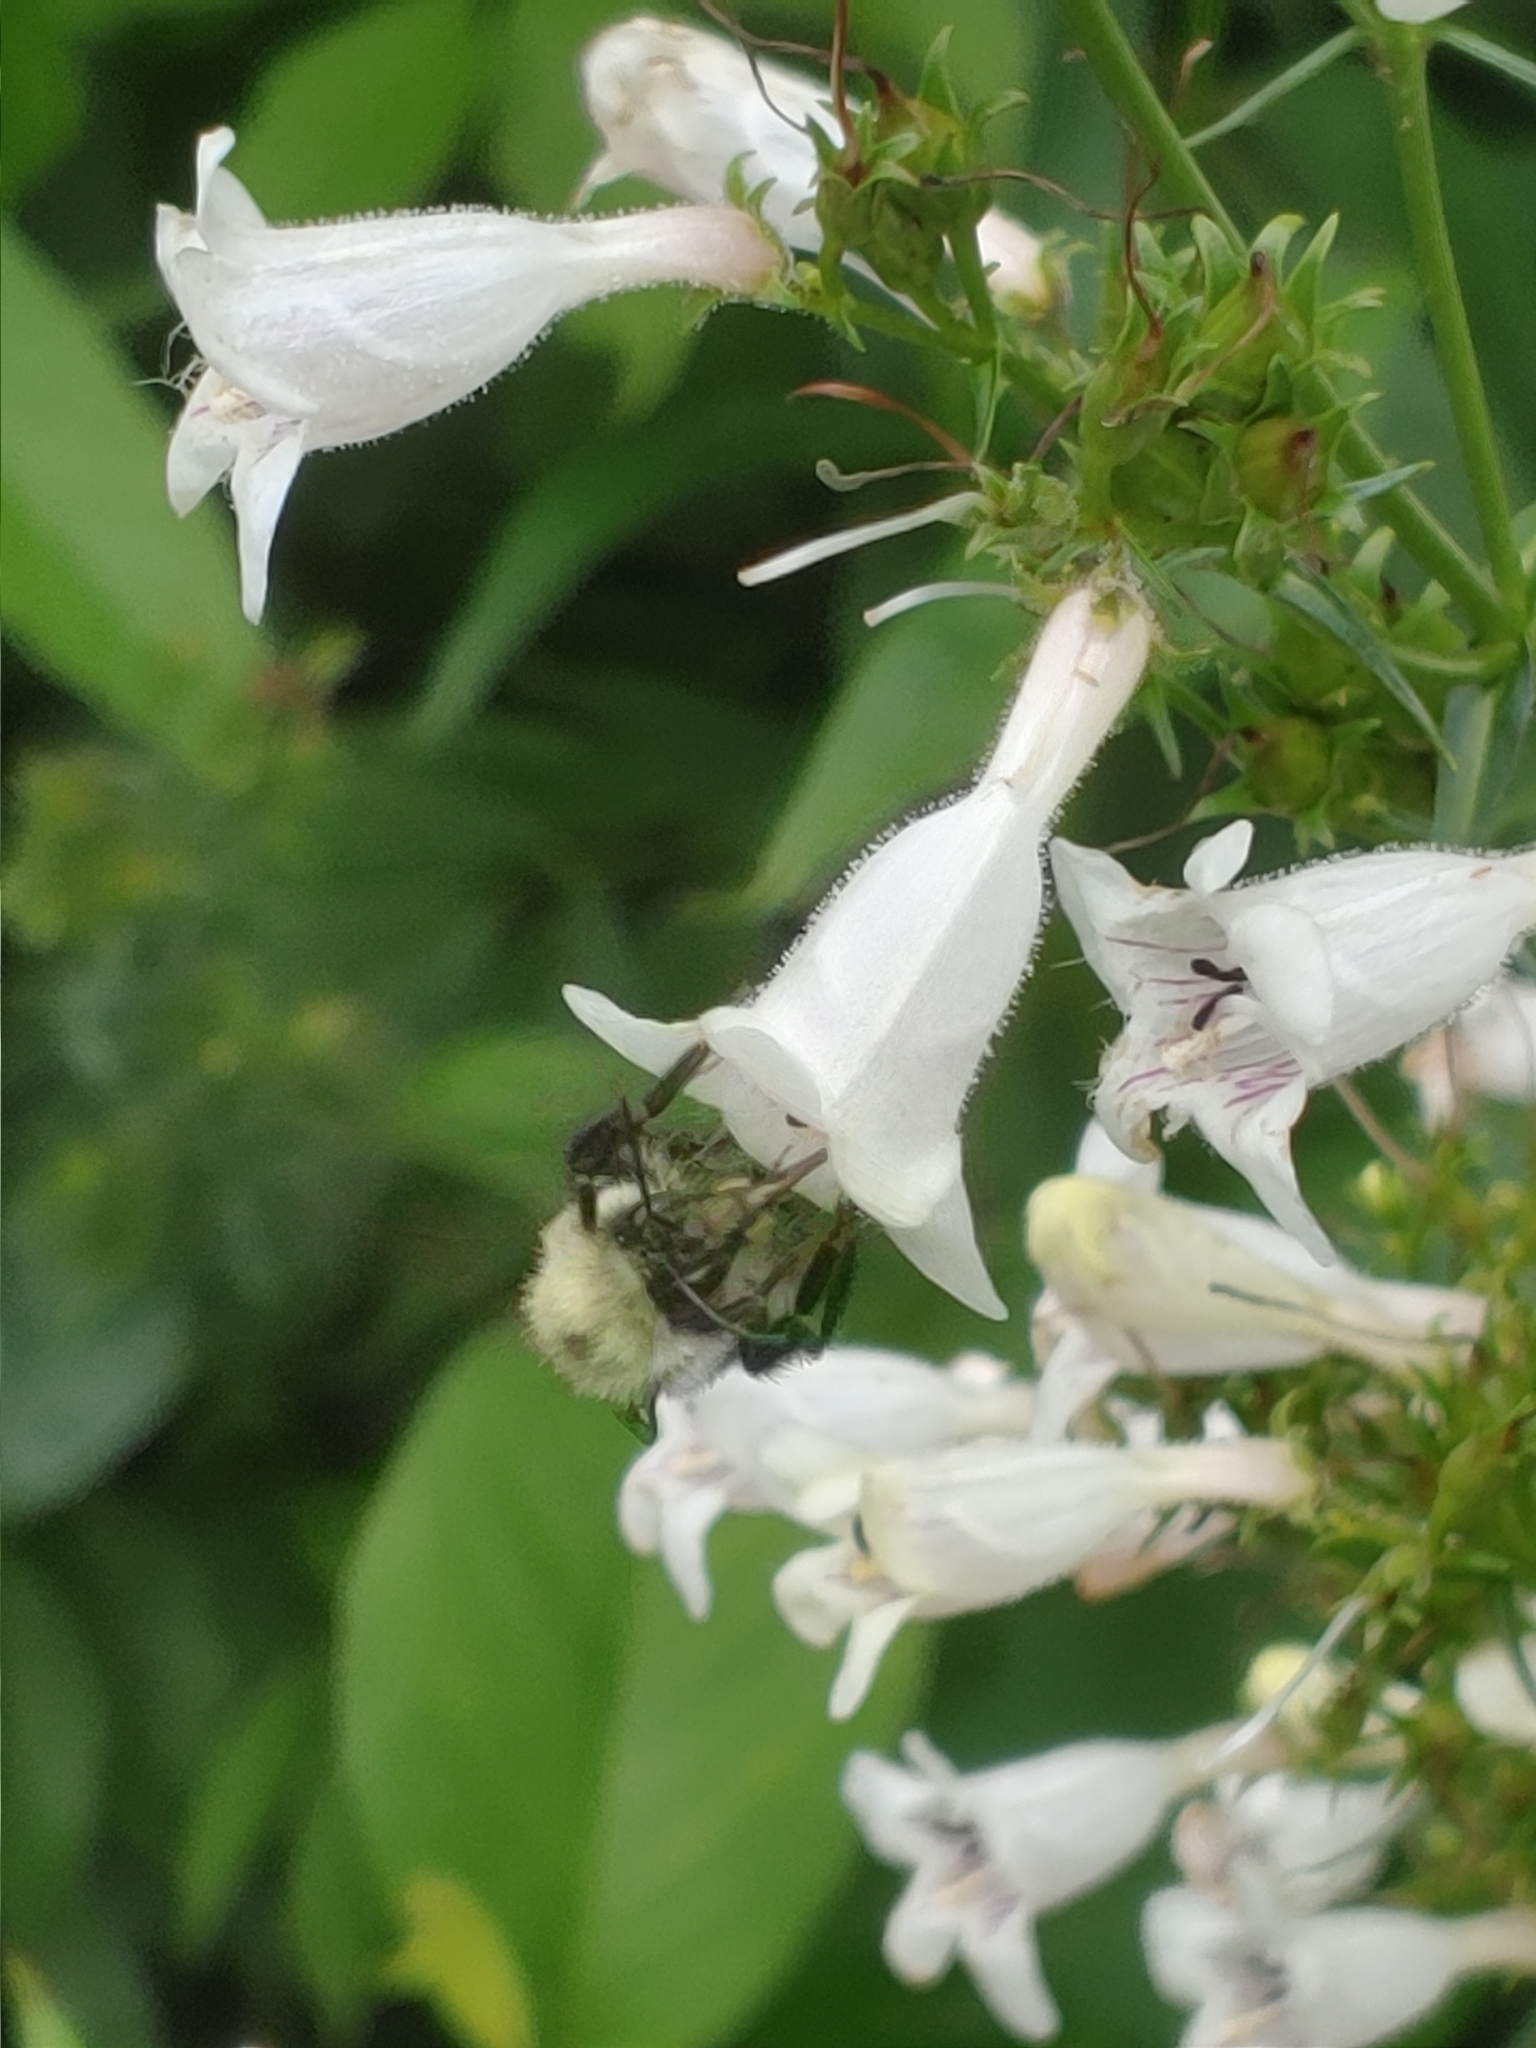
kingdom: Animalia
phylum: Arthropoda
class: Insecta
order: Hymenoptera
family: Apidae
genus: Bombus
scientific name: Bombus bimaculatus
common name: Two-spotted bumble bee
